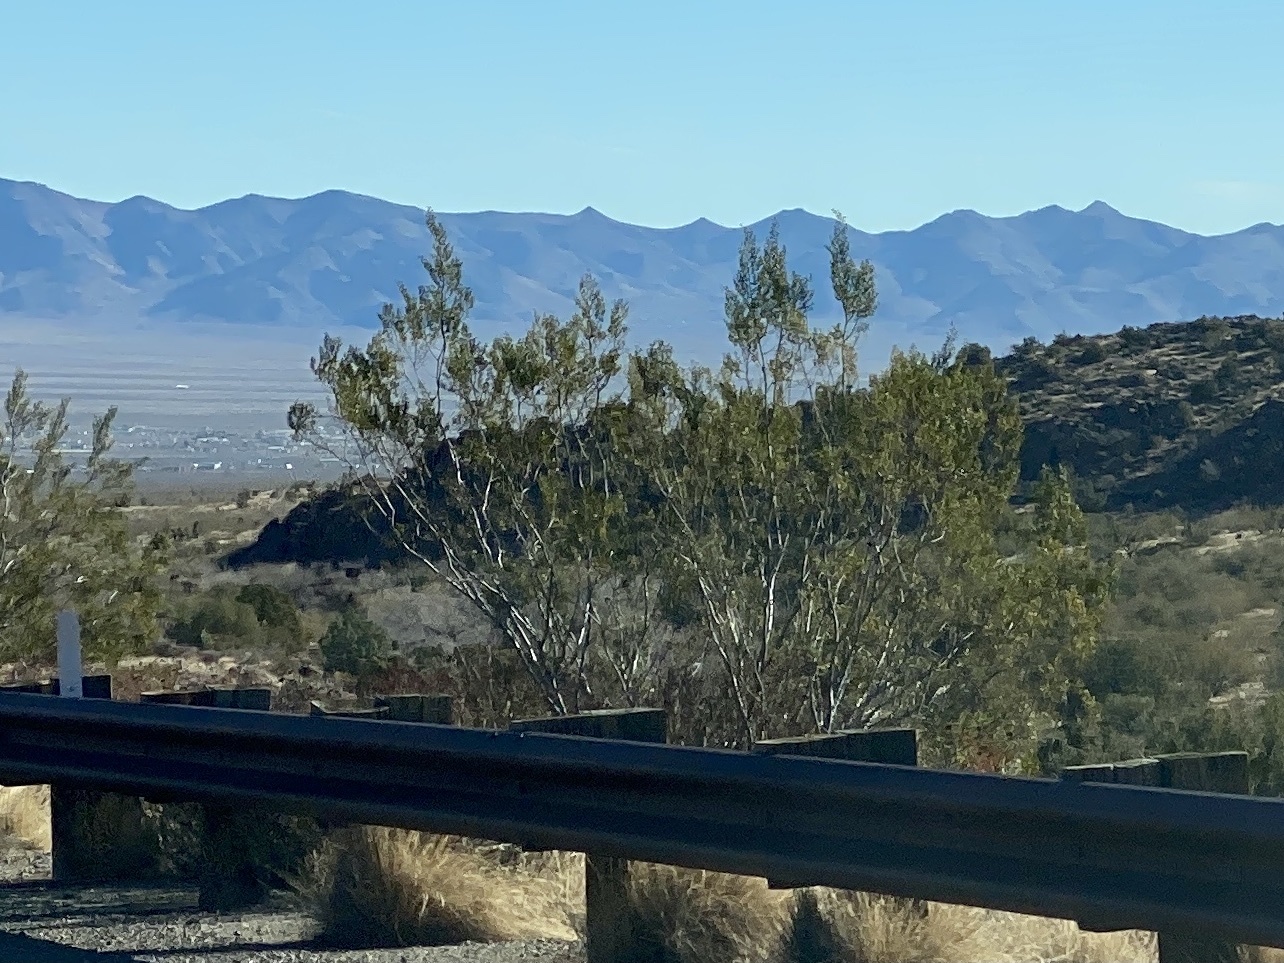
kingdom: Plantae
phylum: Tracheophyta
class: Magnoliopsida
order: Zygophyllales
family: Zygophyllaceae
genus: Larrea
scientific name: Larrea tridentata
